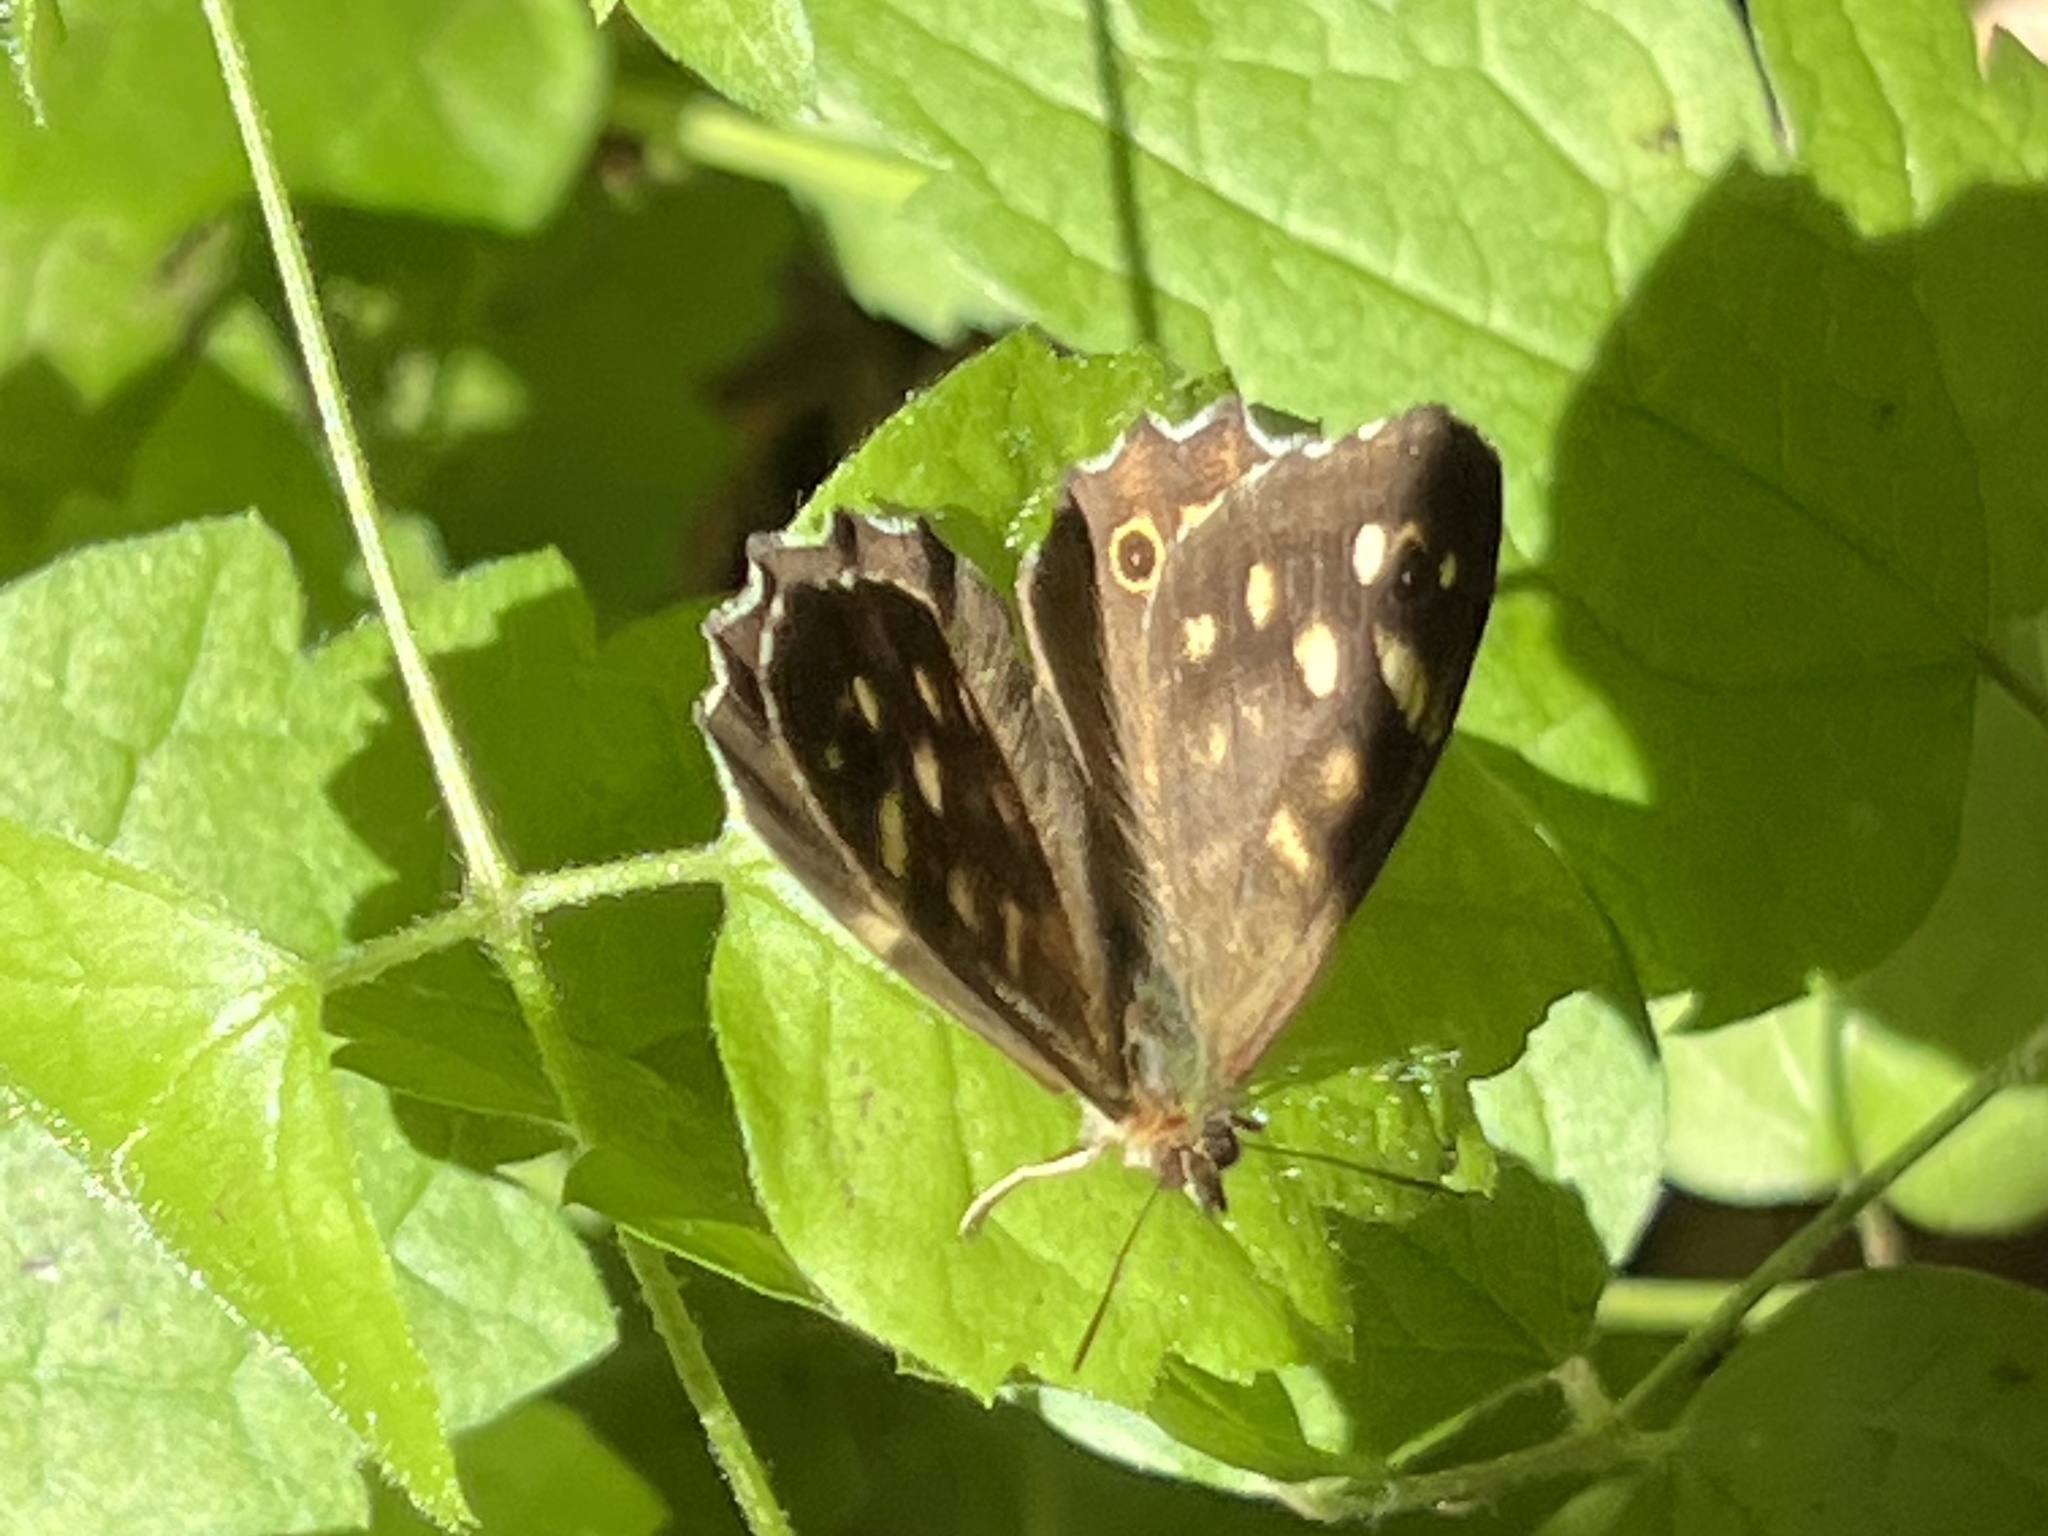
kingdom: Animalia
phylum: Arthropoda
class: Insecta
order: Lepidoptera
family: Nymphalidae
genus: Pararge
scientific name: Pararge aegeria
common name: Speckled wood
